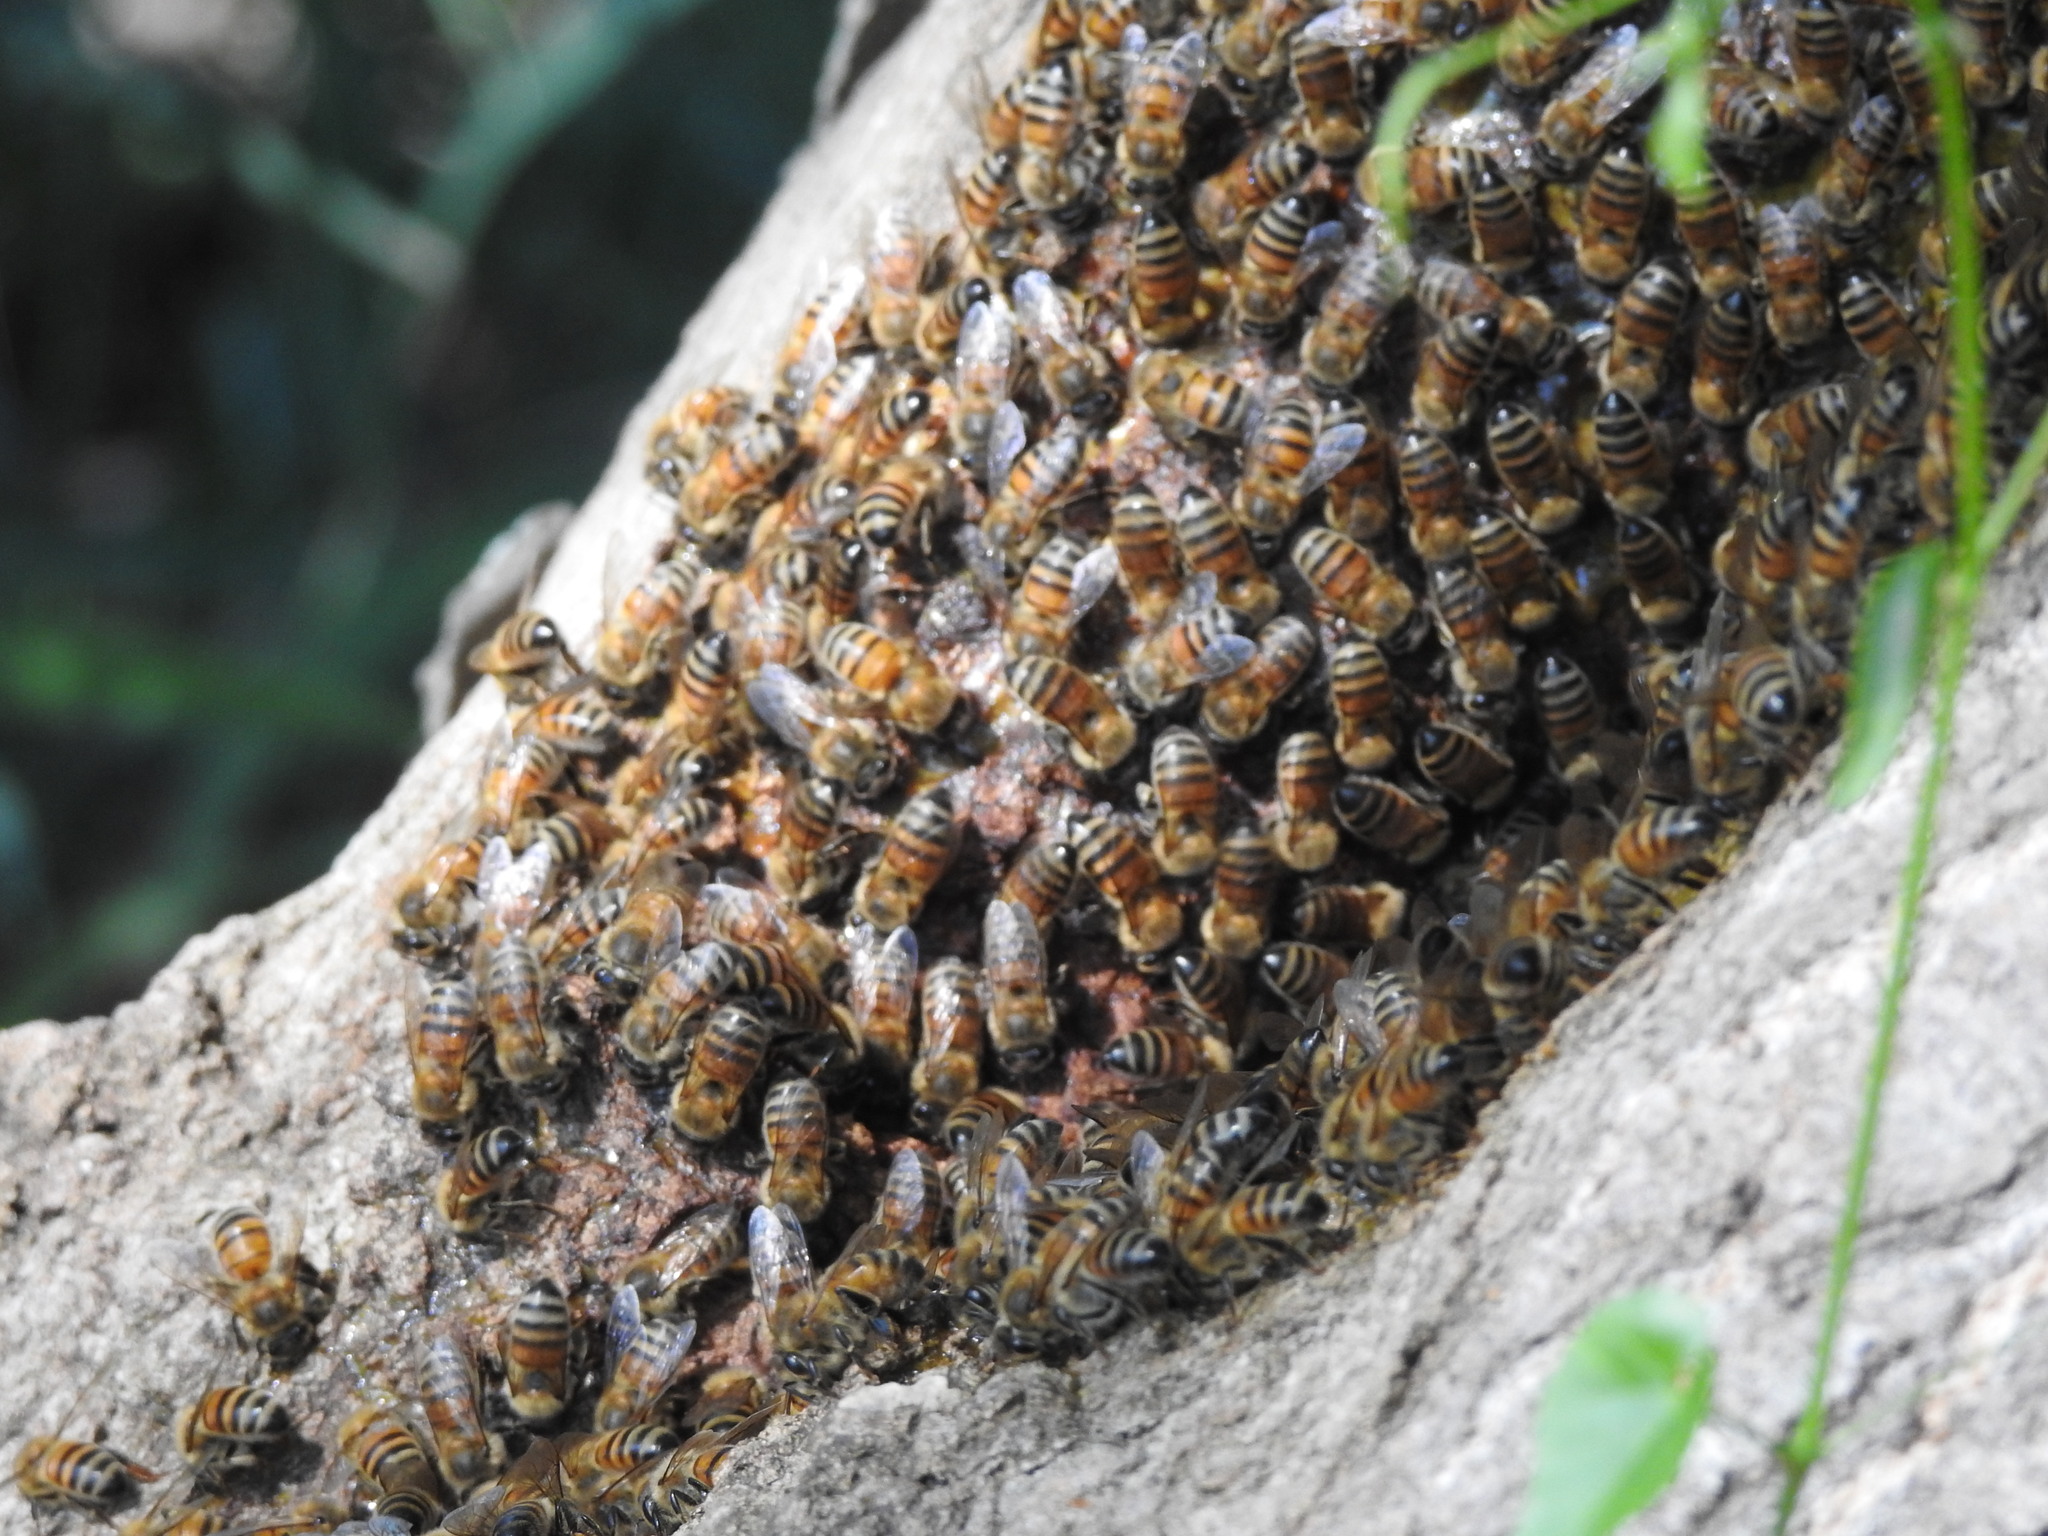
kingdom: Animalia
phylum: Arthropoda
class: Insecta
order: Hymenoptera
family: Apidae
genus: Apis
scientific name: Apis mellifera
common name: Honey bee
